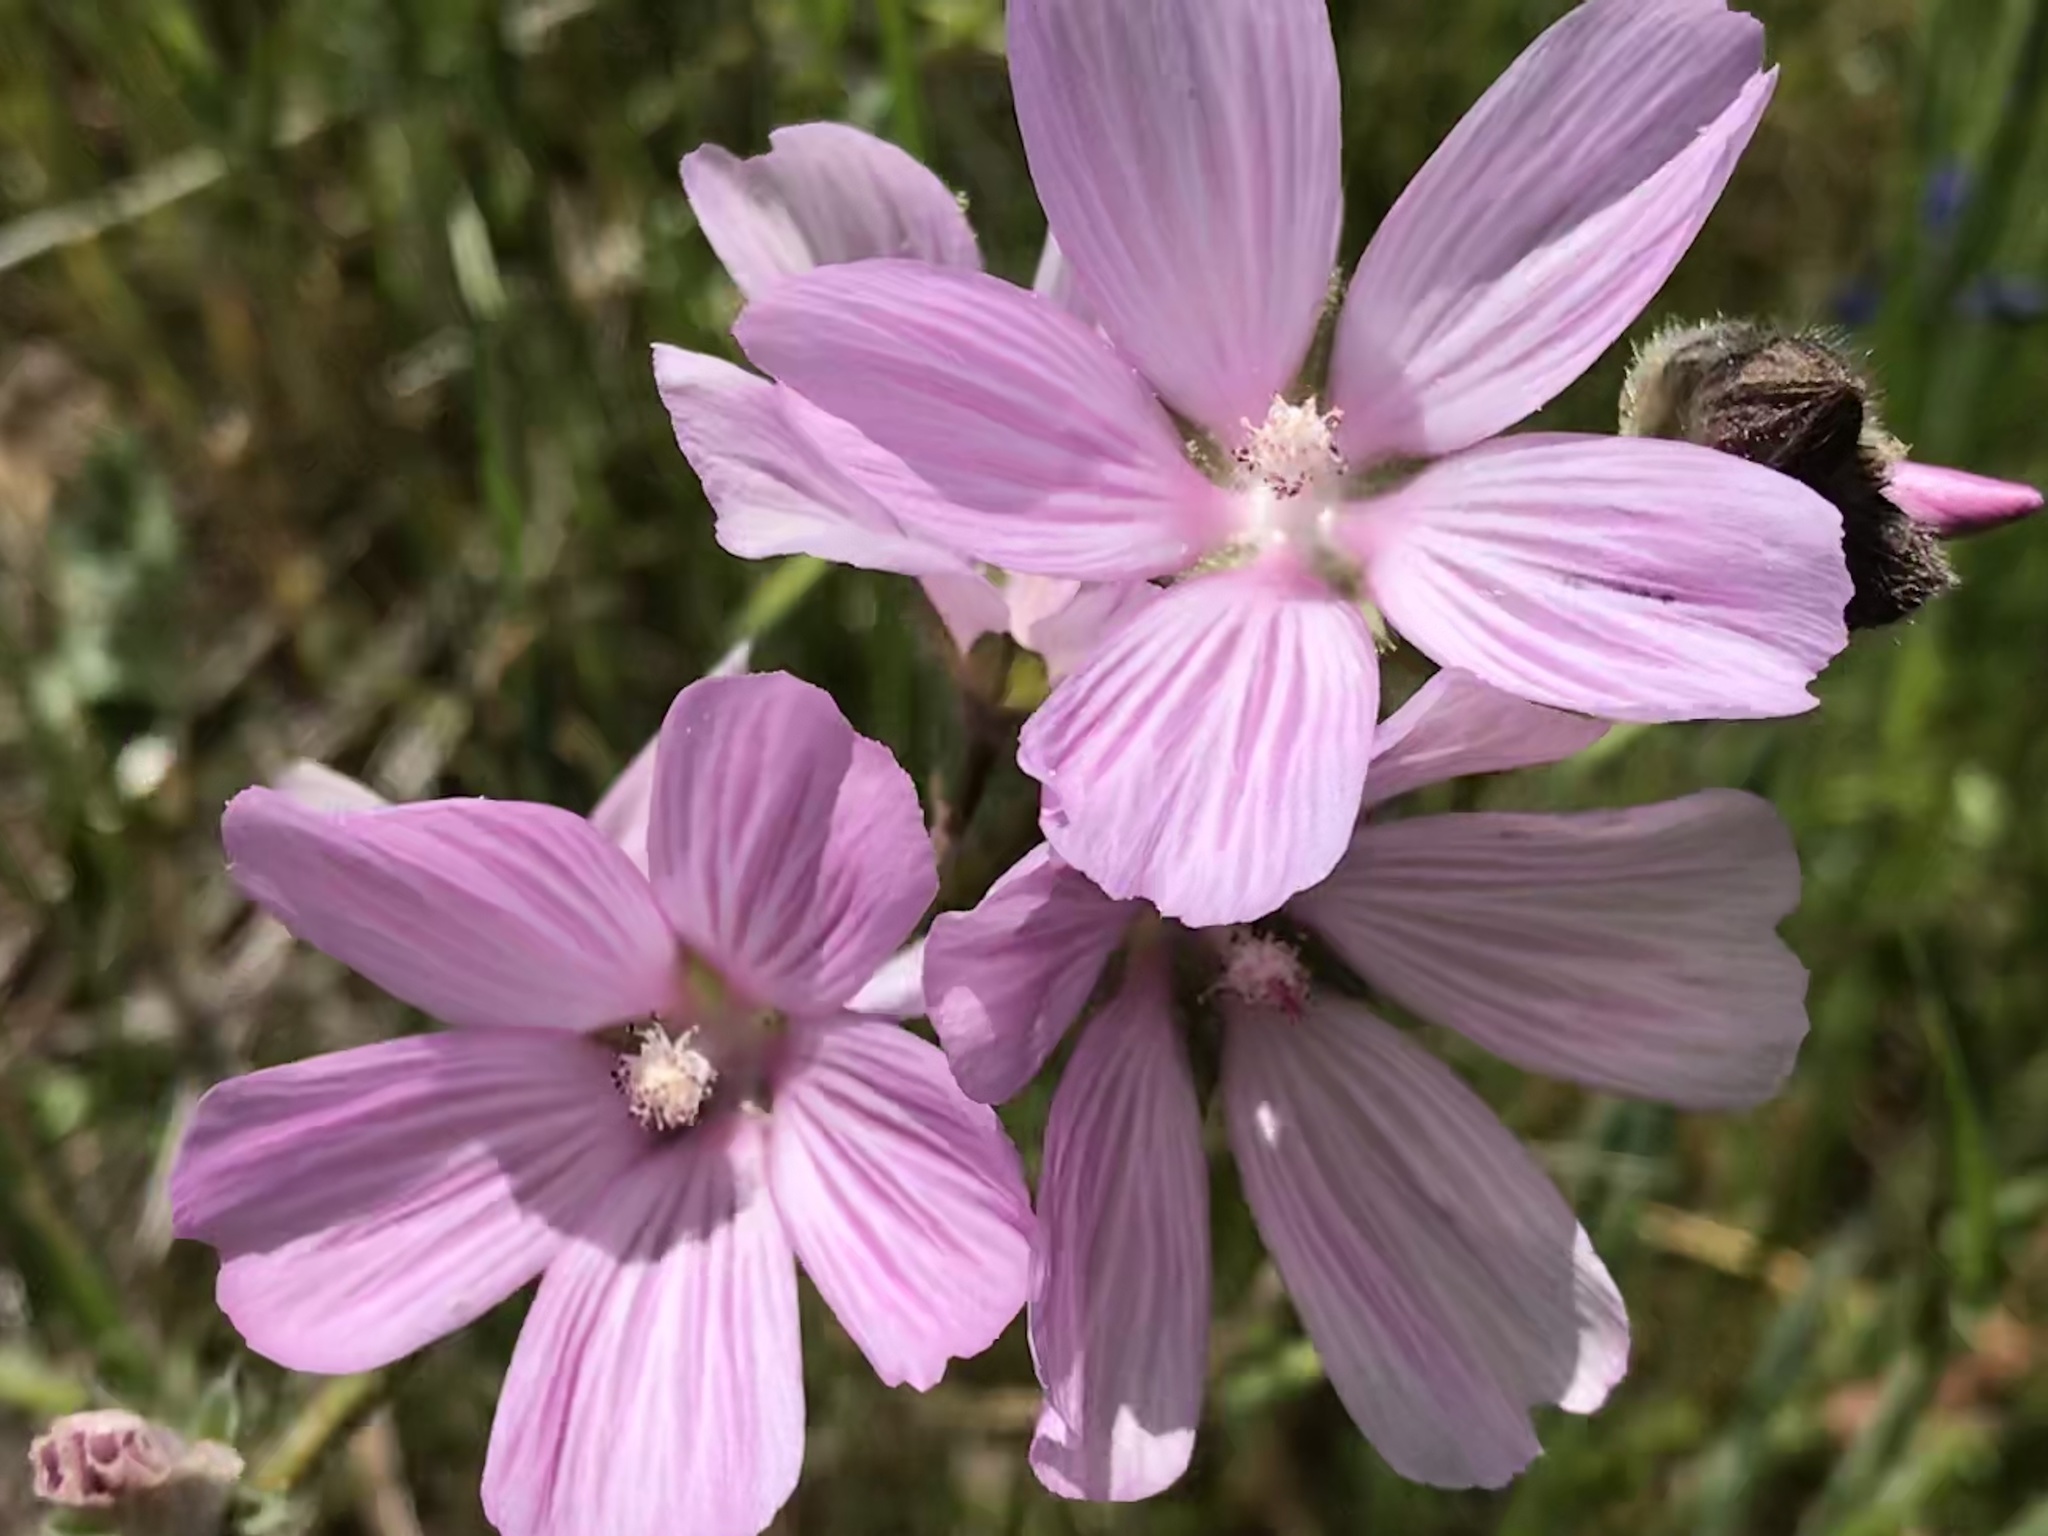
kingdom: Plantae
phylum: Tracheophyta
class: Magnoliopsida
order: Malvales
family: Malvaceae
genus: Sidalcea
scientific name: Sidalcea malviflora
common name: Greek mallow
